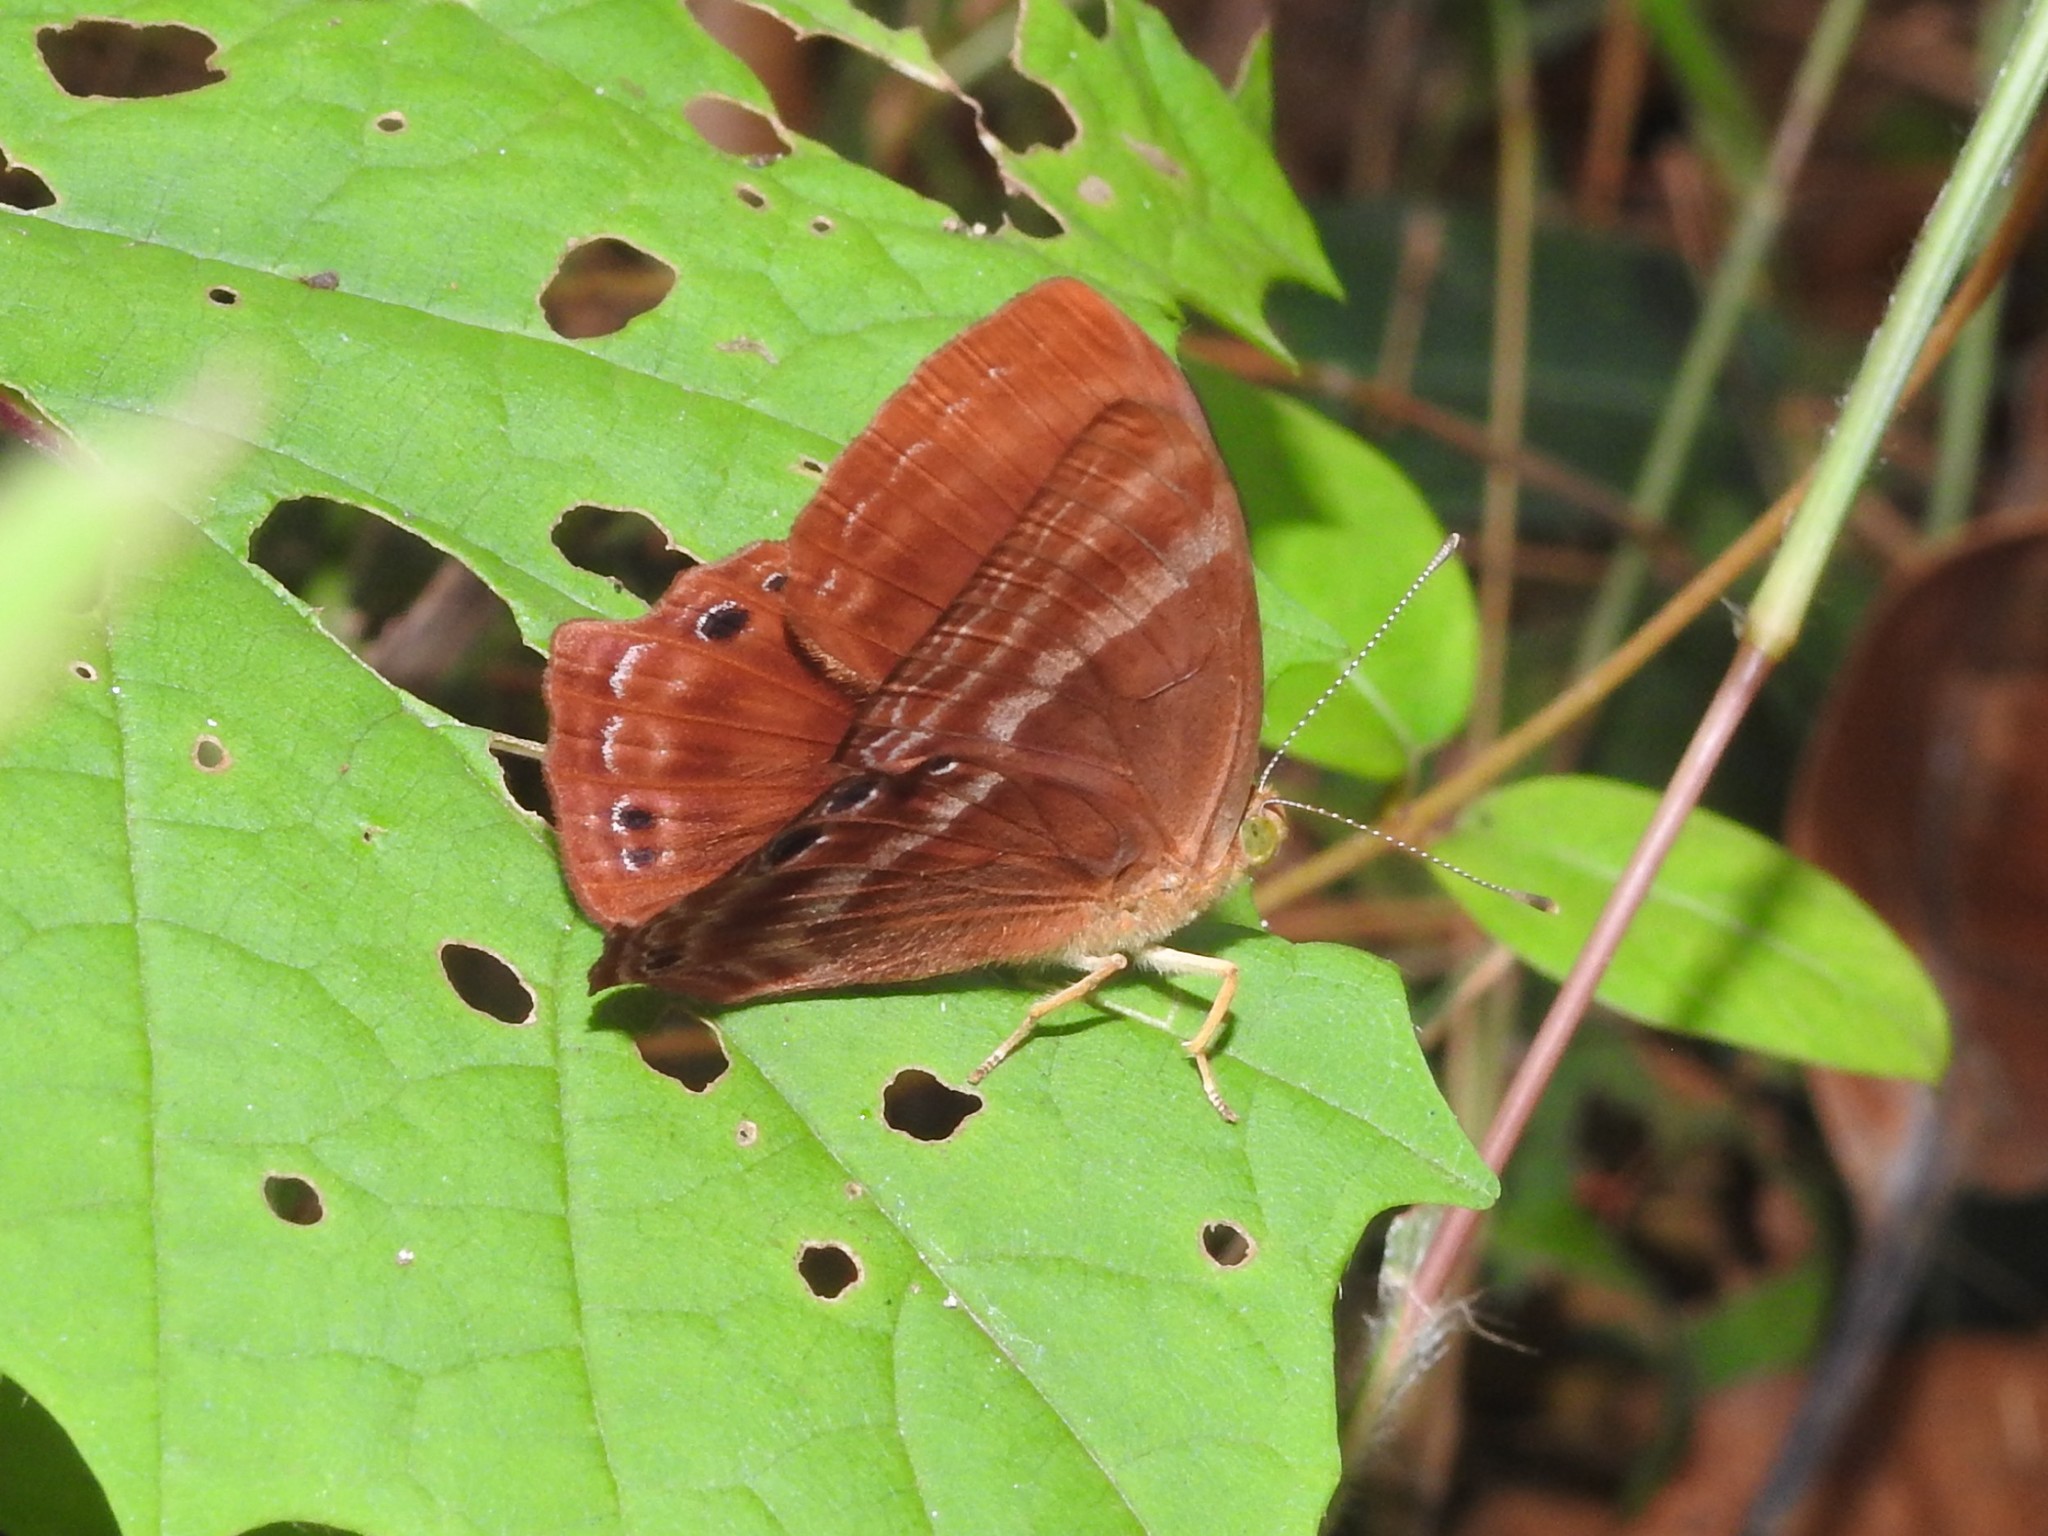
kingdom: Animalia
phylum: Arthropoda
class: Insecta
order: Lepidoptera
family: Lycaenidae
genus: Abisara
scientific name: Abisara echeria
